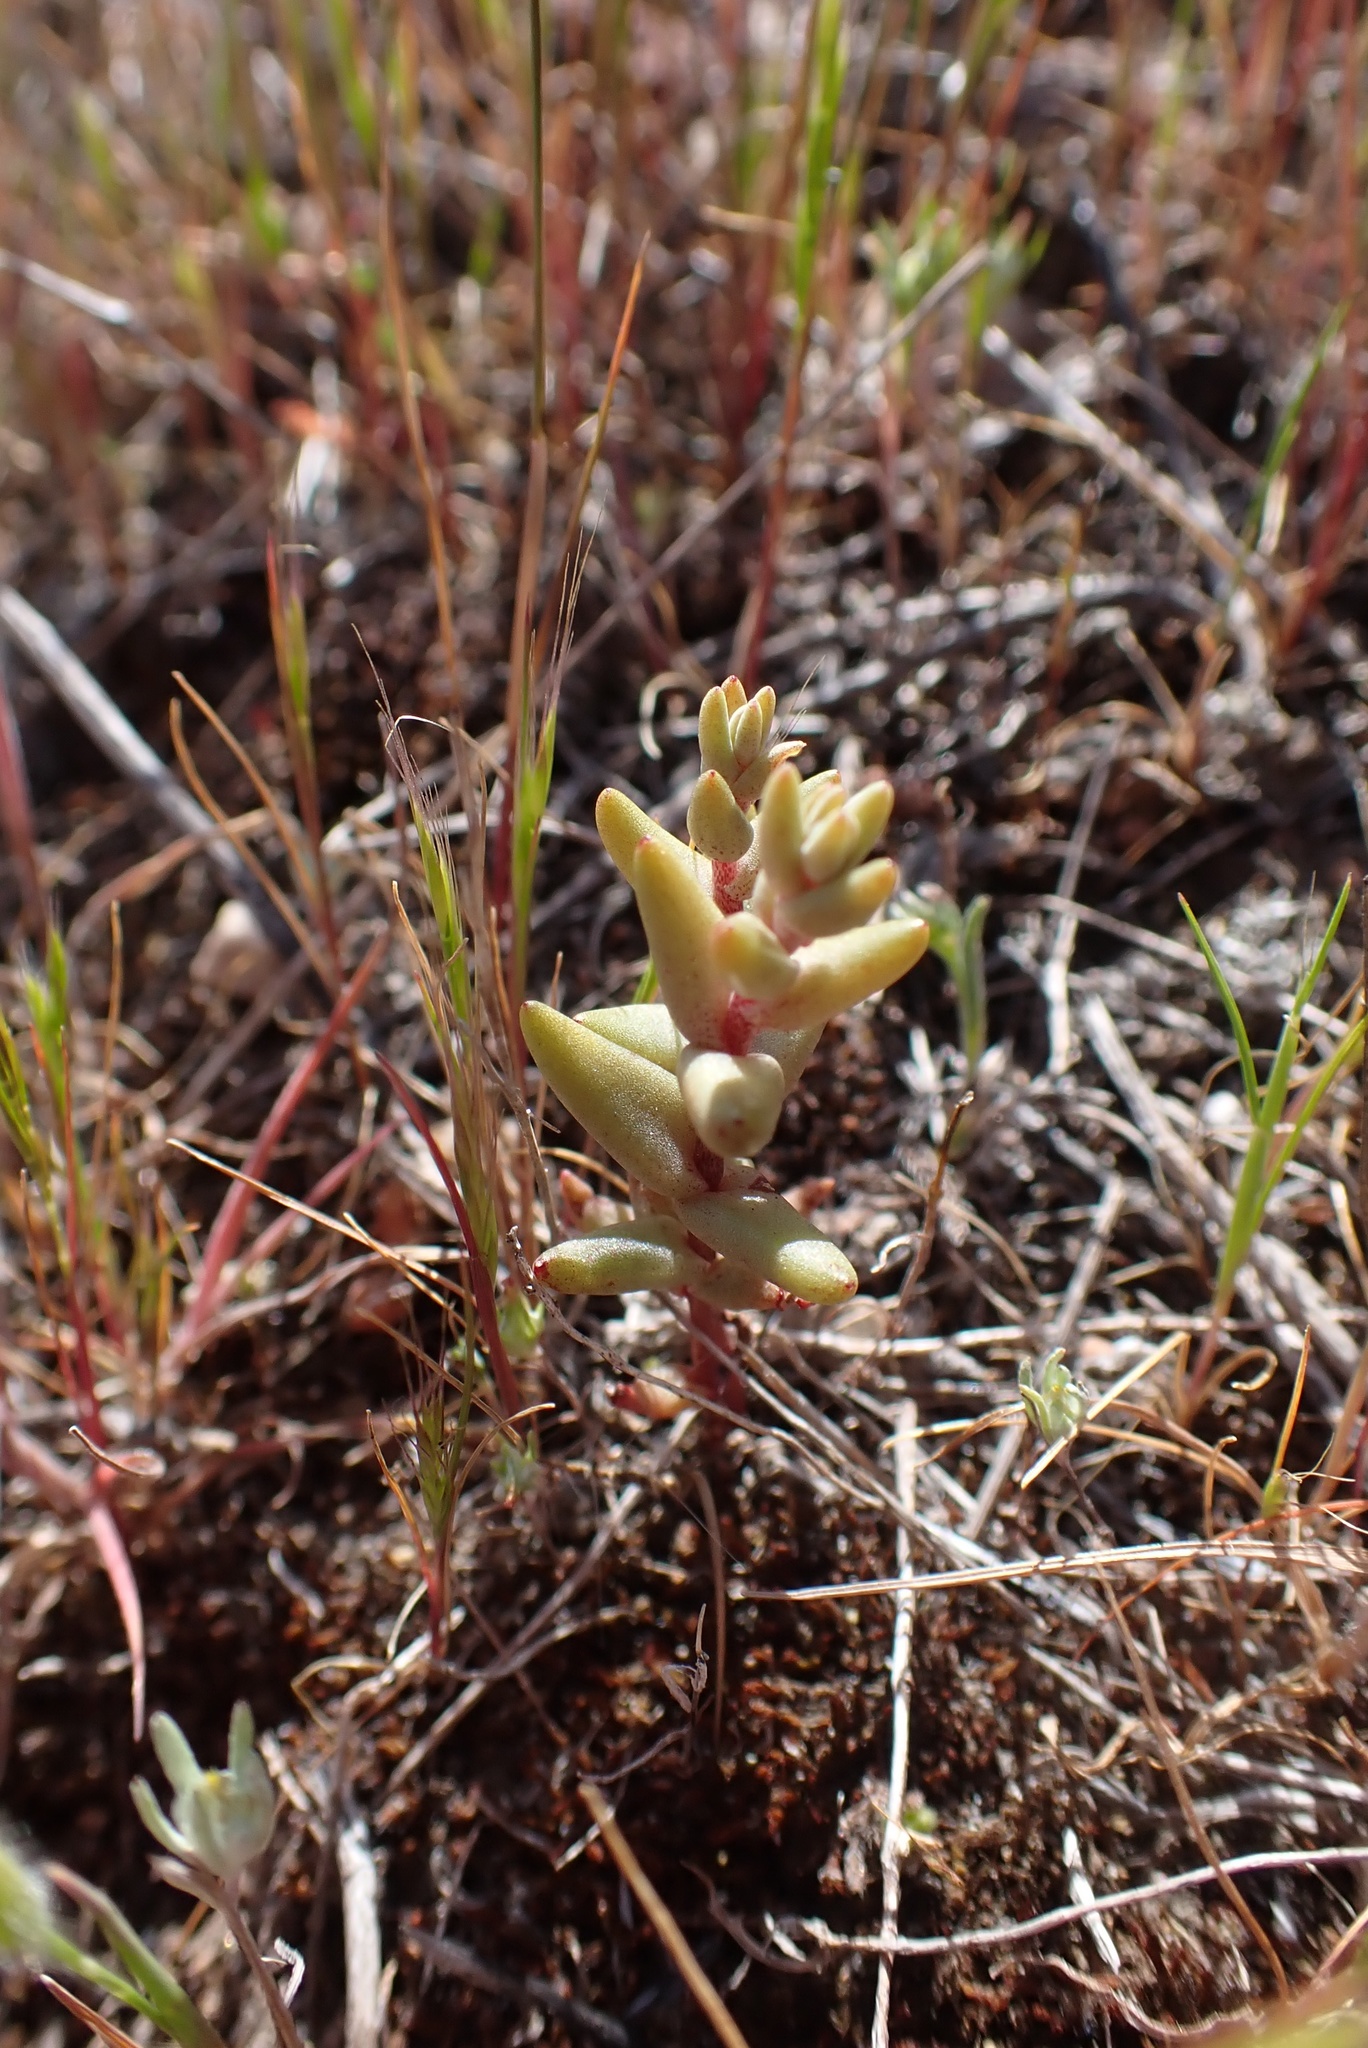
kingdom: Plantae
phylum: Tracheophyta
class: Magnoliopsida
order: Saxifragales
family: Crassulaceae
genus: Dudleya
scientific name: Dudleya variegata
